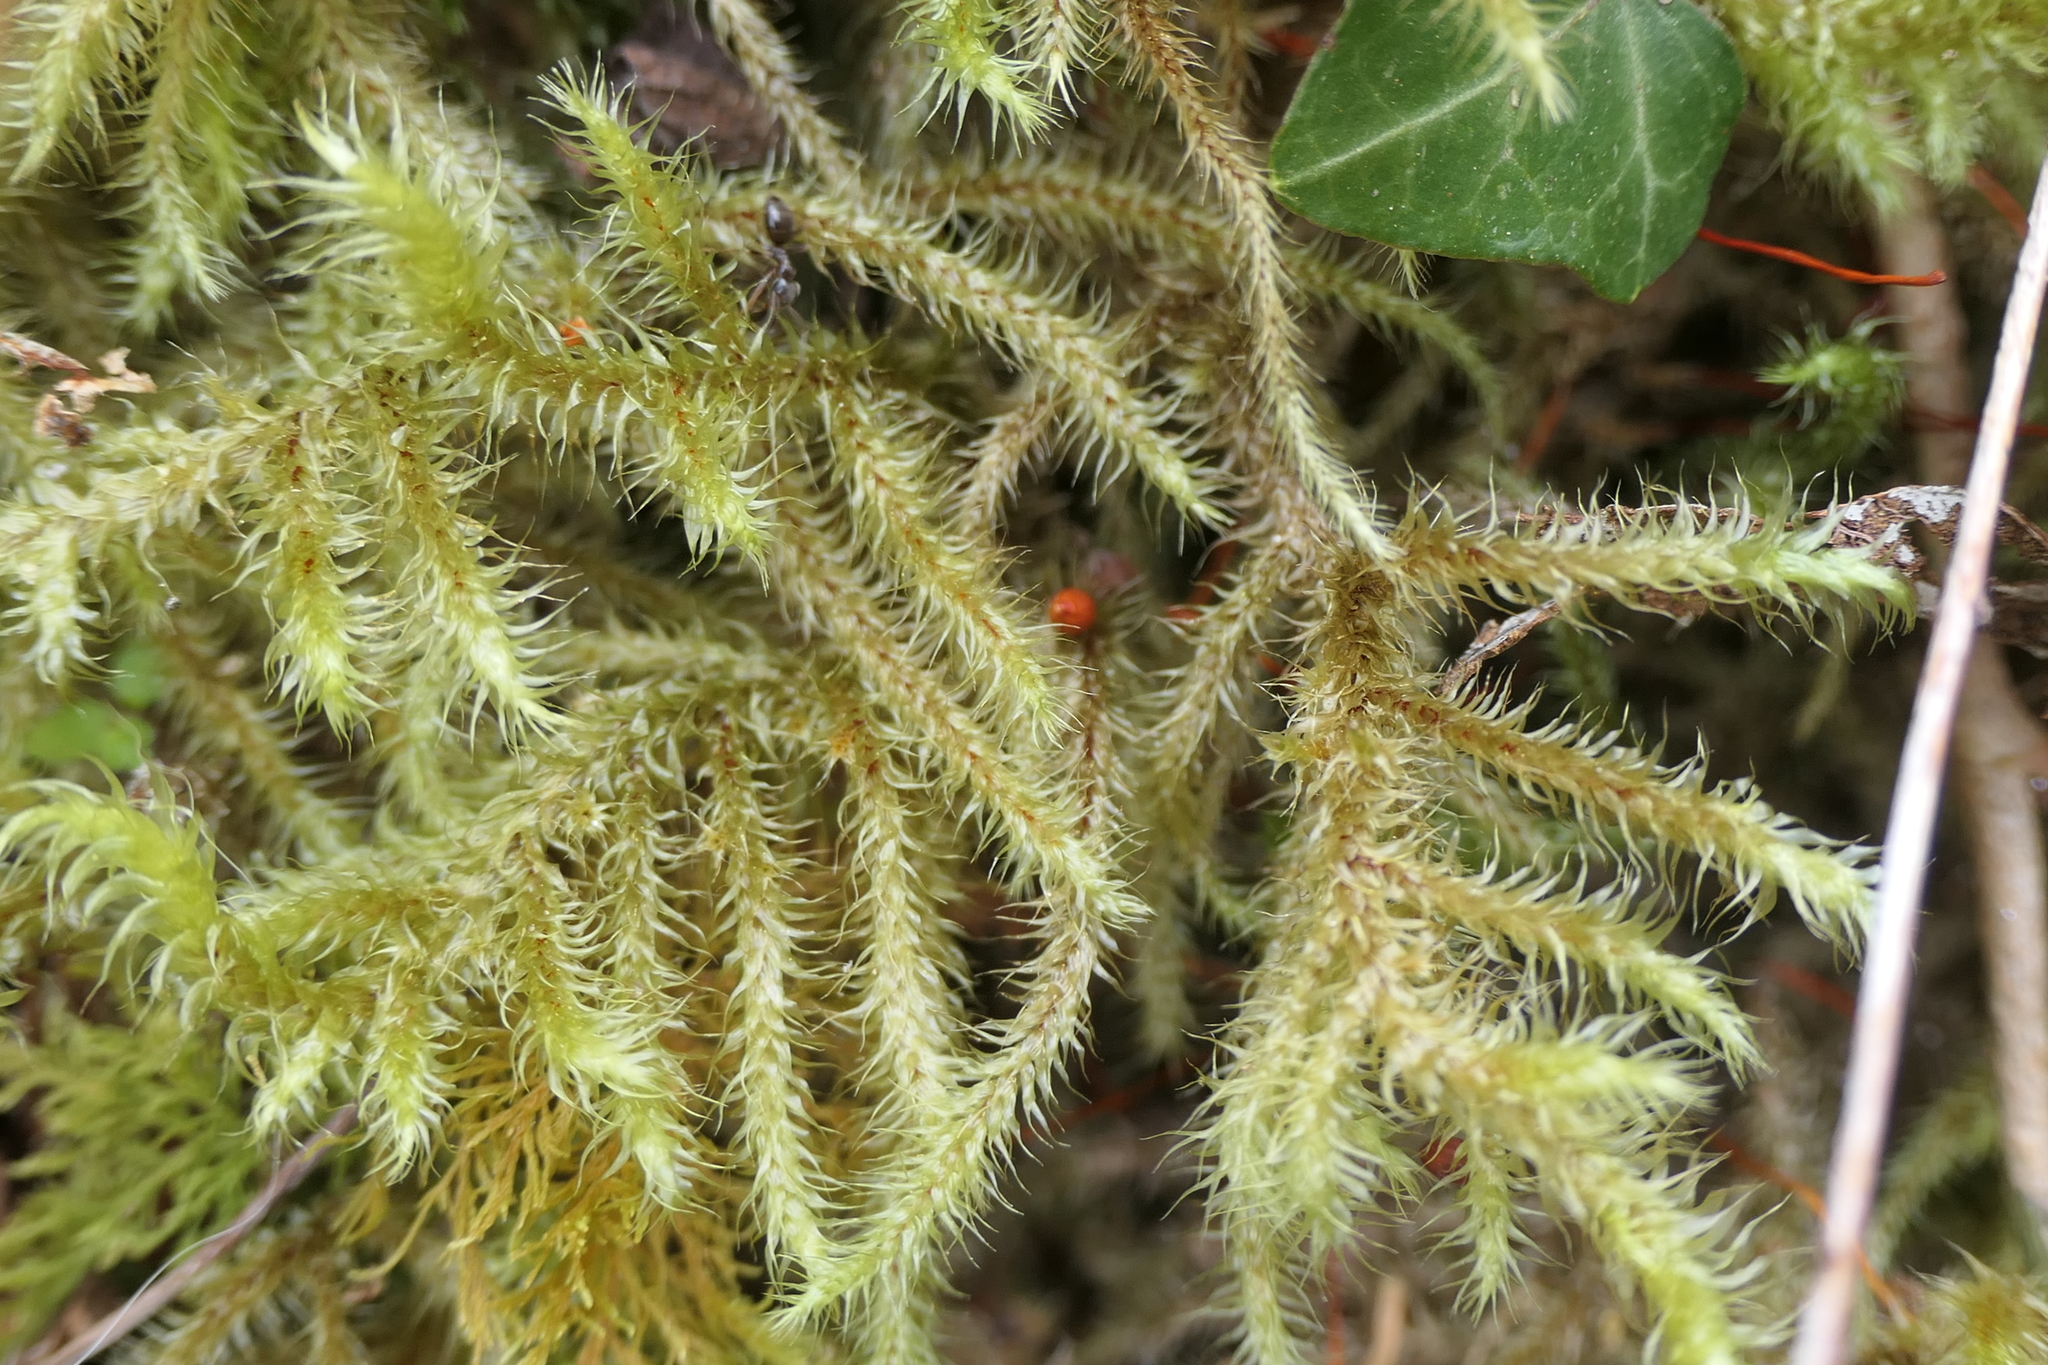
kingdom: Plantae
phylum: Bryophyta
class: Bryopsida
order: Hypnales
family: Hylocomiaceae
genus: Rhytidiadelphus
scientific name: Rhytidiadelphus loreus
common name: Lanky moss
